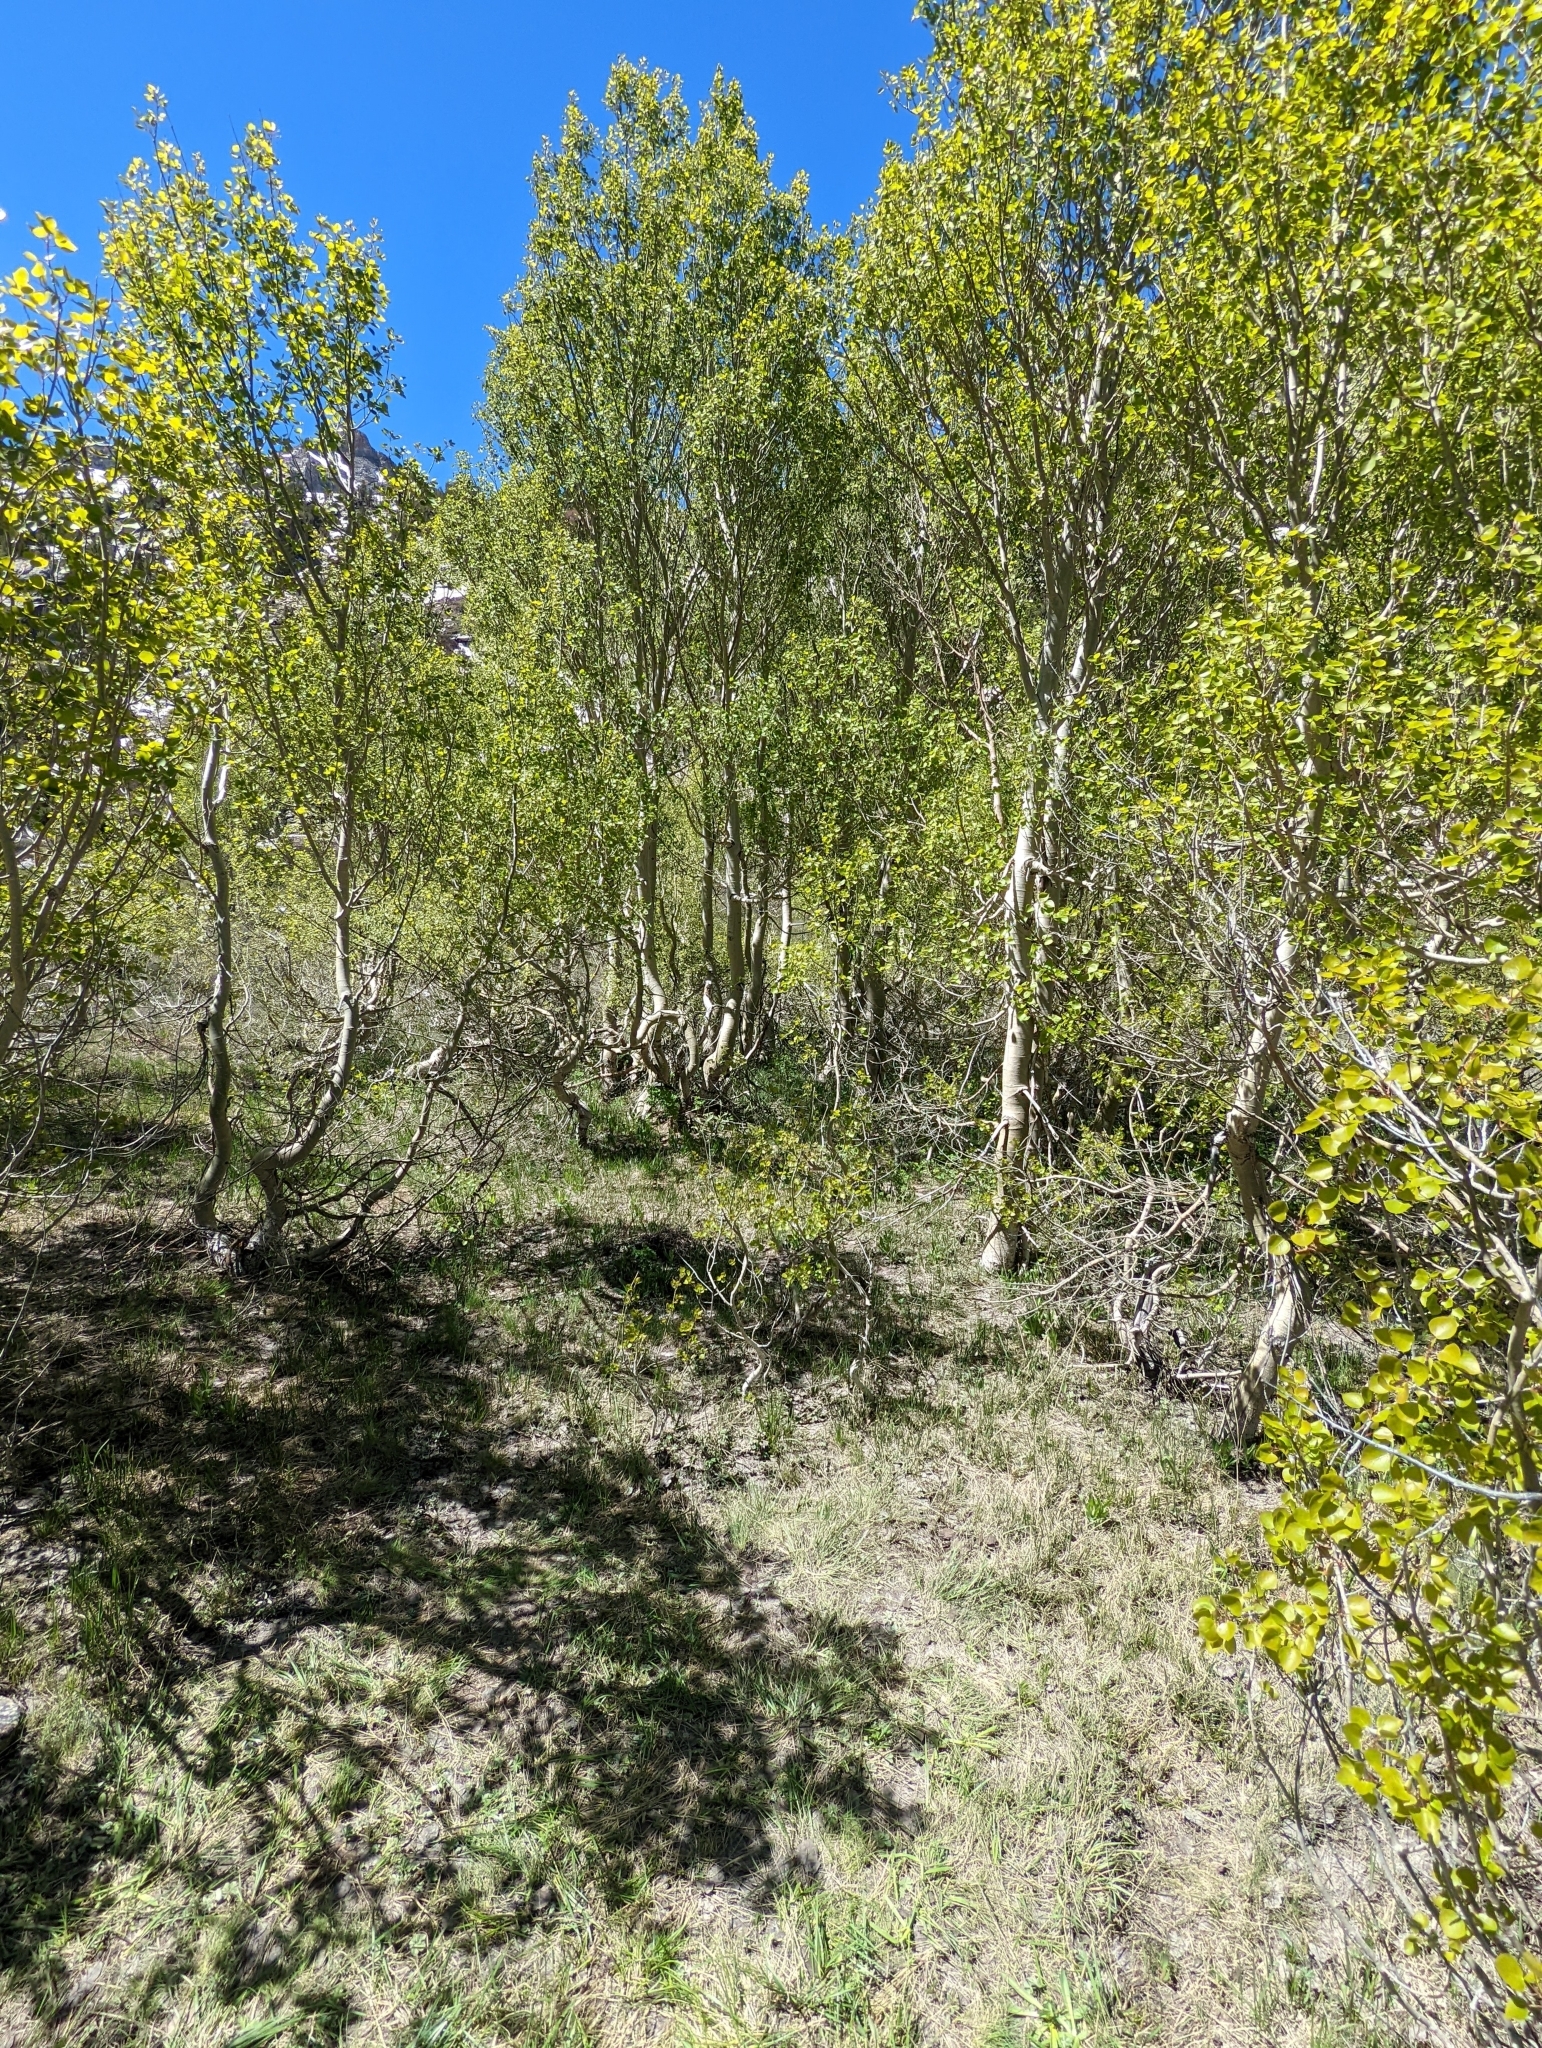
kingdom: Plantae
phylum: Tracheophyta
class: Magnoliopsida
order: Malpighiales
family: Salicaceae
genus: Populus
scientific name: Populus tremuloides
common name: Quaking aspen
